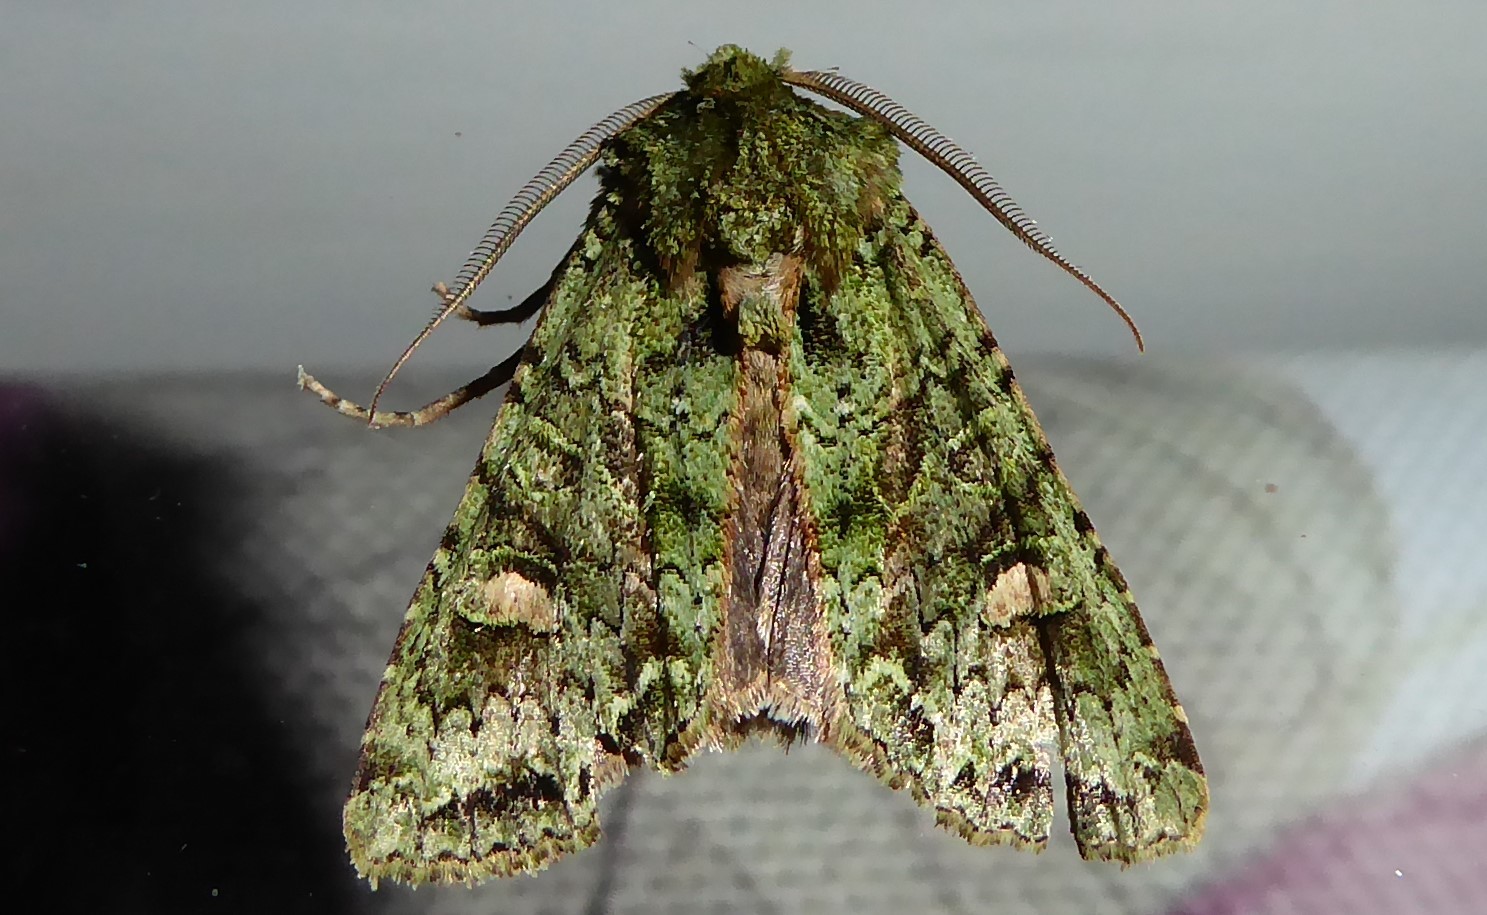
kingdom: Animalia
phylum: Arthropoda
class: Insecta
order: Lepidoptera
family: Noctuidae
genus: Ichneutica
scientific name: Ichneutica
